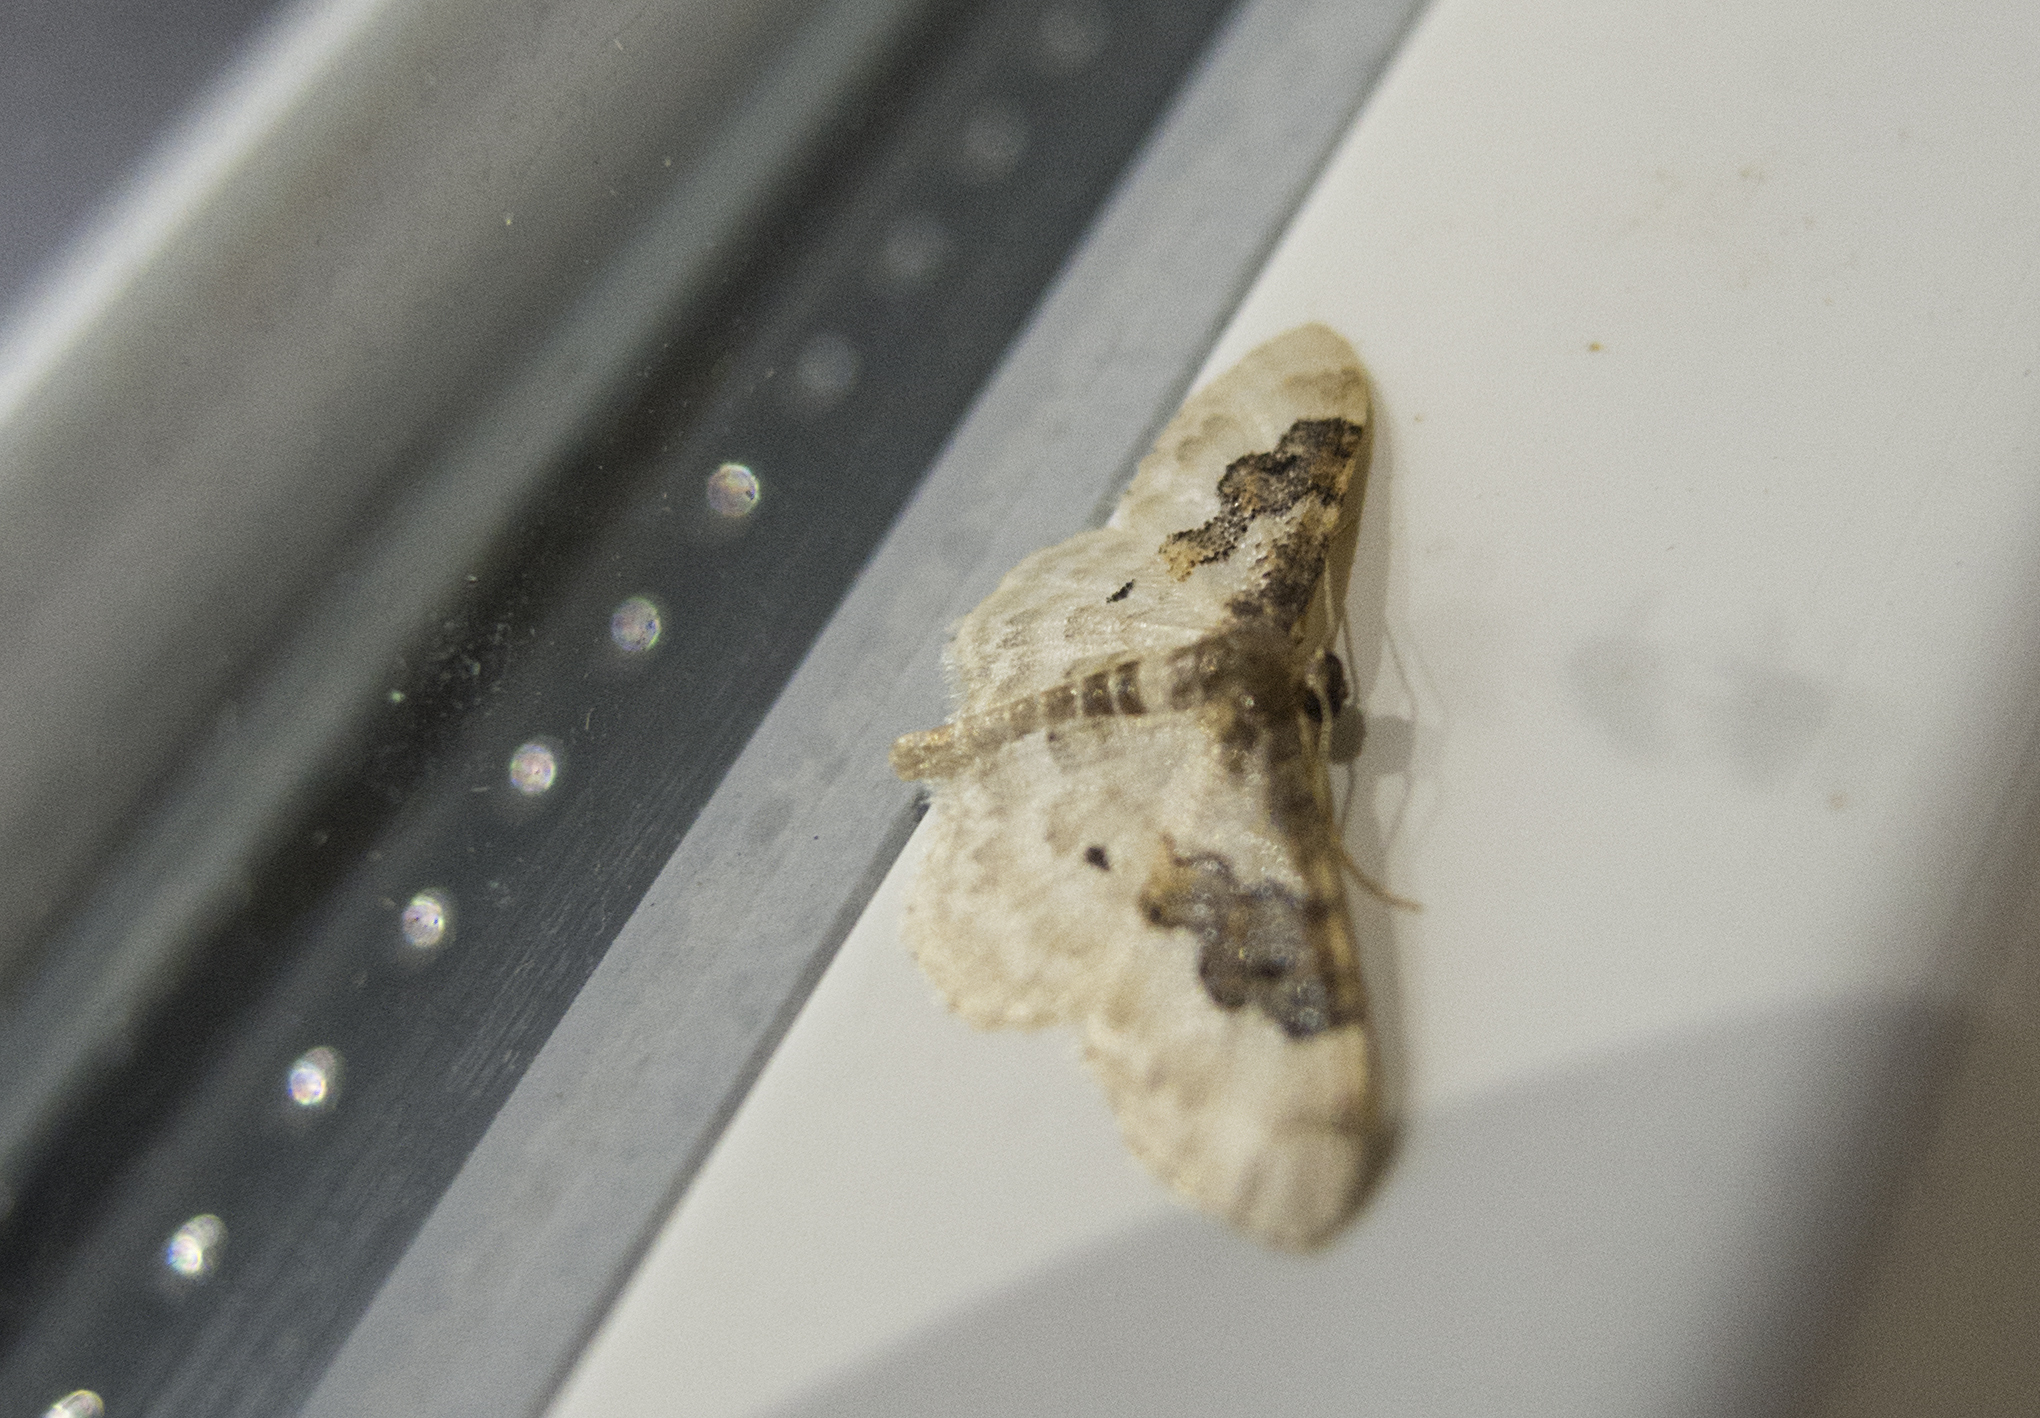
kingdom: Animalia
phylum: Arthropoda
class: Insecta
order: Lepidoptera
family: Geometridae
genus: Idaea
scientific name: Idaea rusticata
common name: Least carpet
